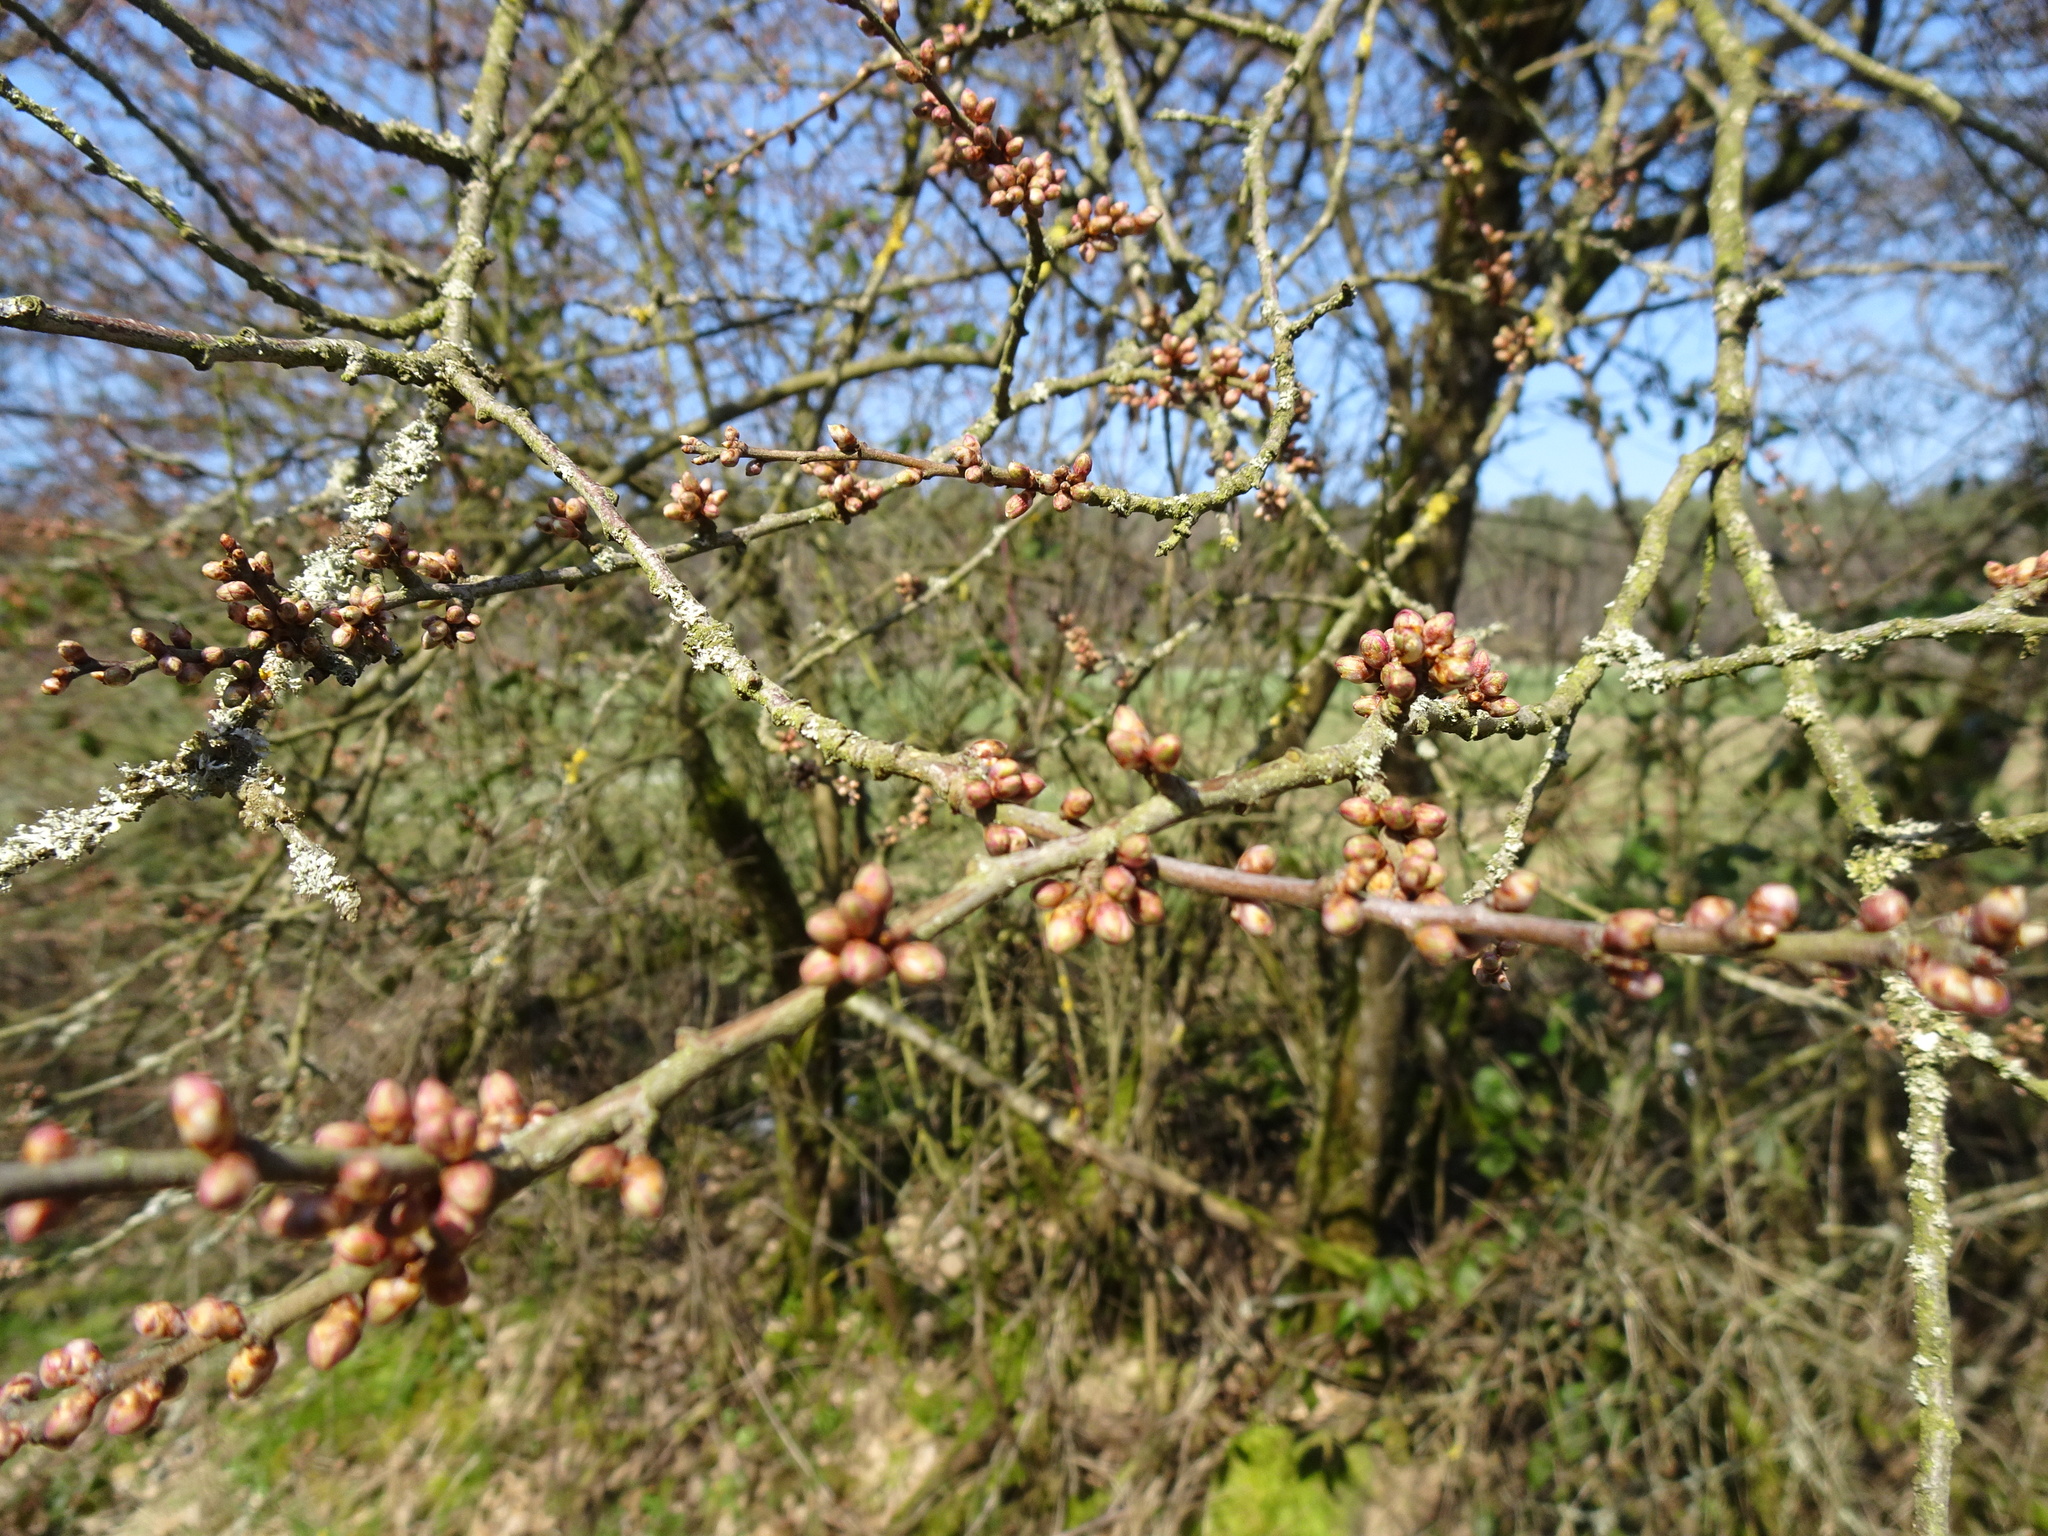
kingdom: Plantae
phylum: Tracheophyta
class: Magnoliopsida
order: Rosales
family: Rosaceae
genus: Prunus
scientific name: Prunus spinosa
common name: Blackthorn
